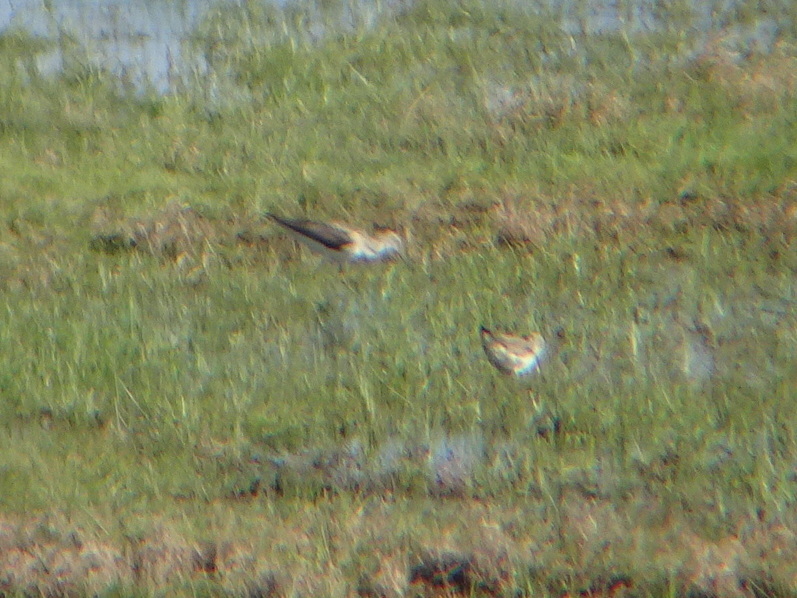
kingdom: Animalia
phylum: Chordata
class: Aves
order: Charadriiformes
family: Scolopacidae
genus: Tringa
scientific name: Tringa nebularia
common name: Common greenshank
